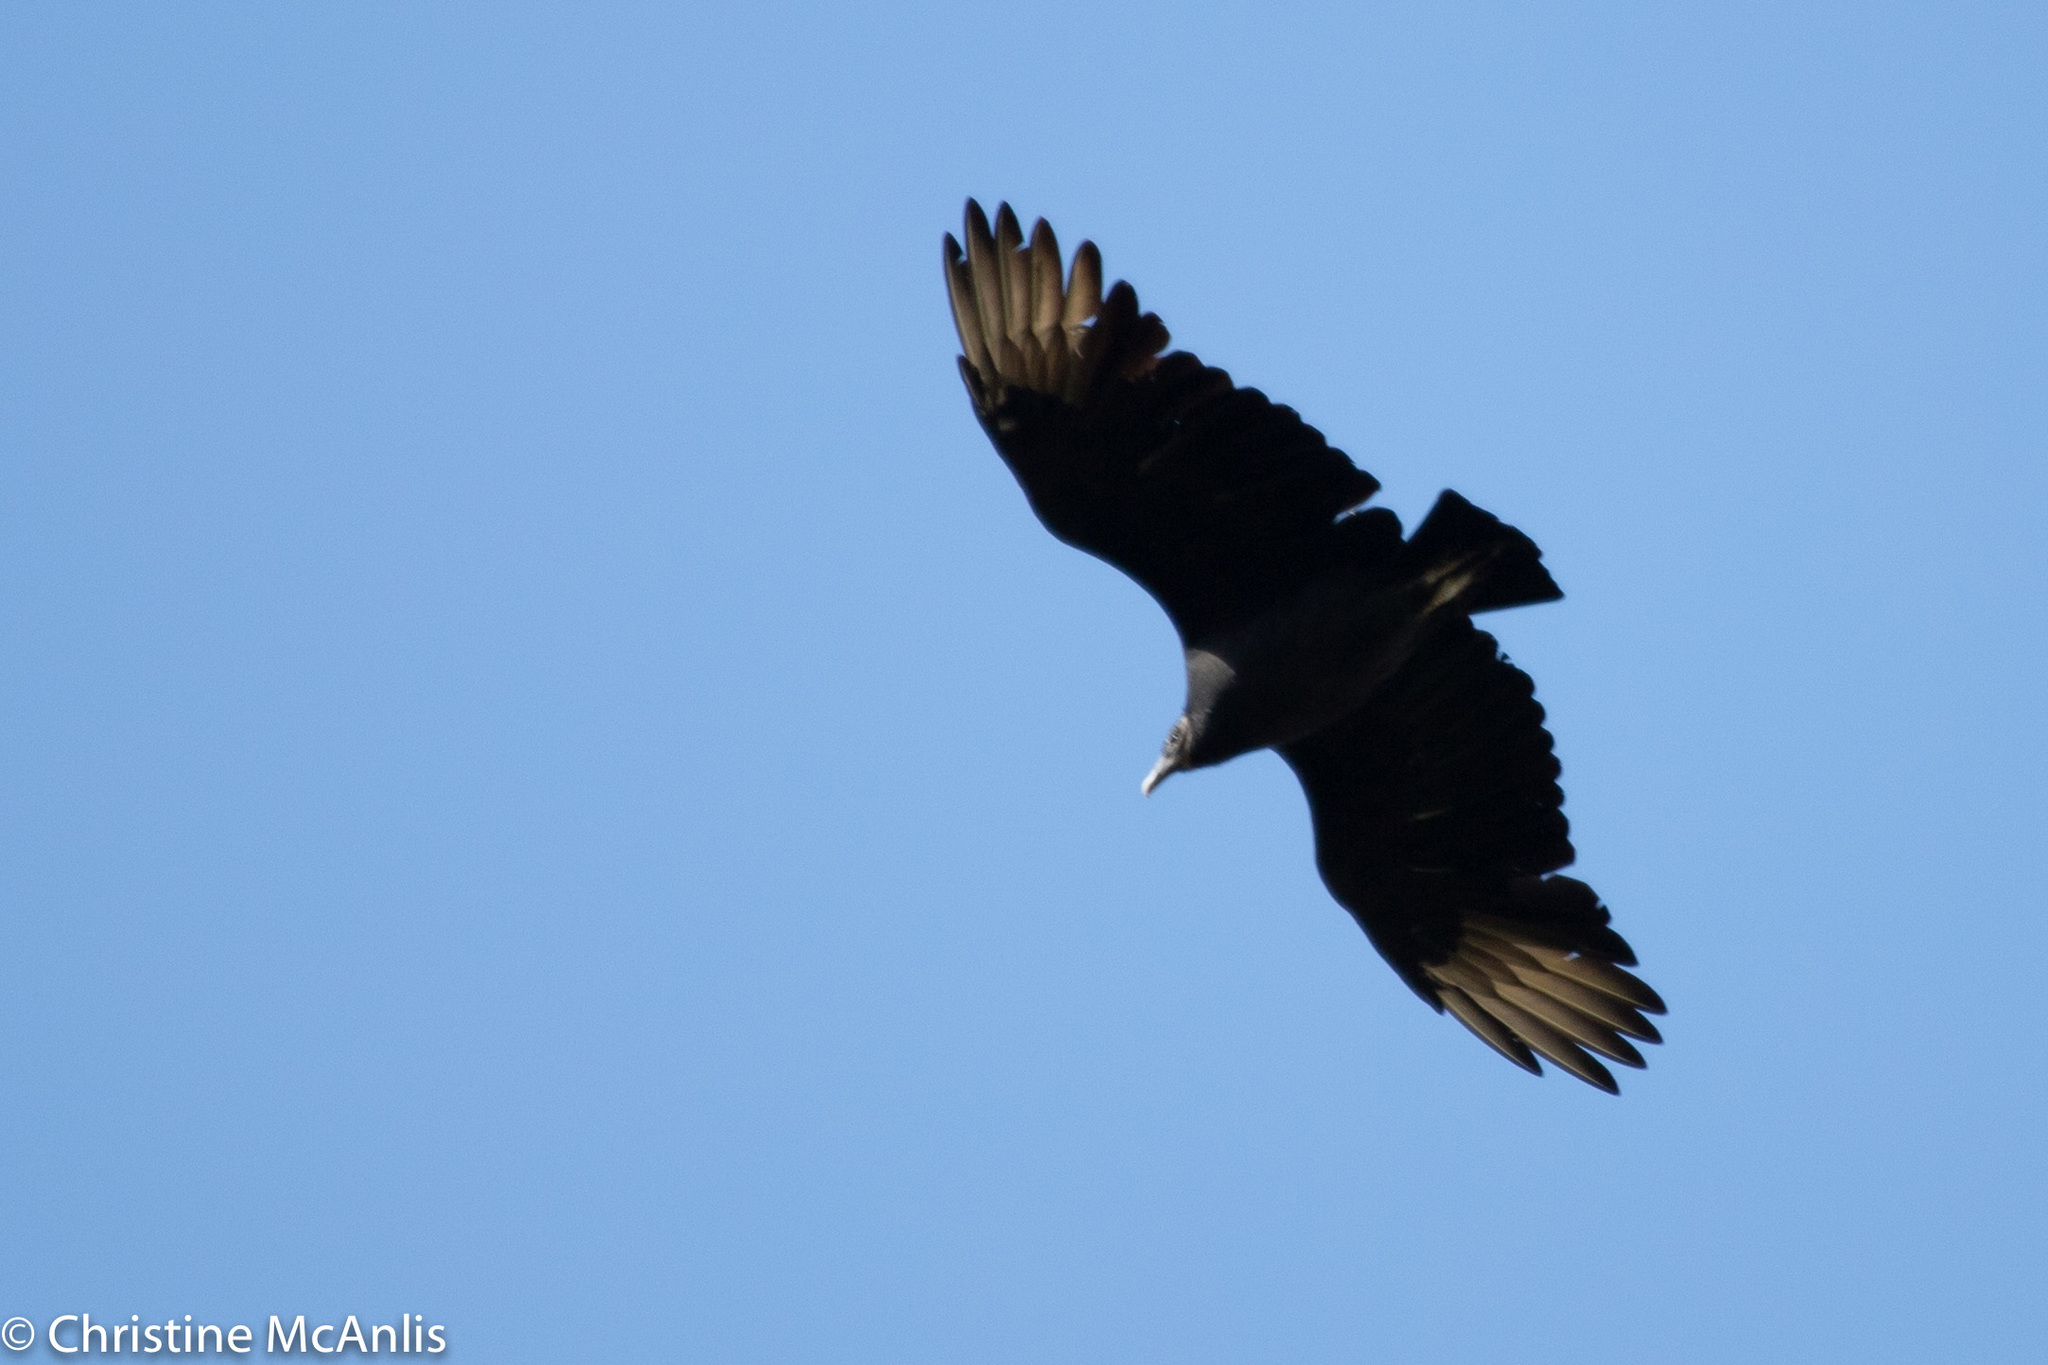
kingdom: Animalia
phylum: Chordata
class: Aves
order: Accipitriformes
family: Cathartidae
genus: Coragyps
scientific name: Coragyps atratus
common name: Black vulture
